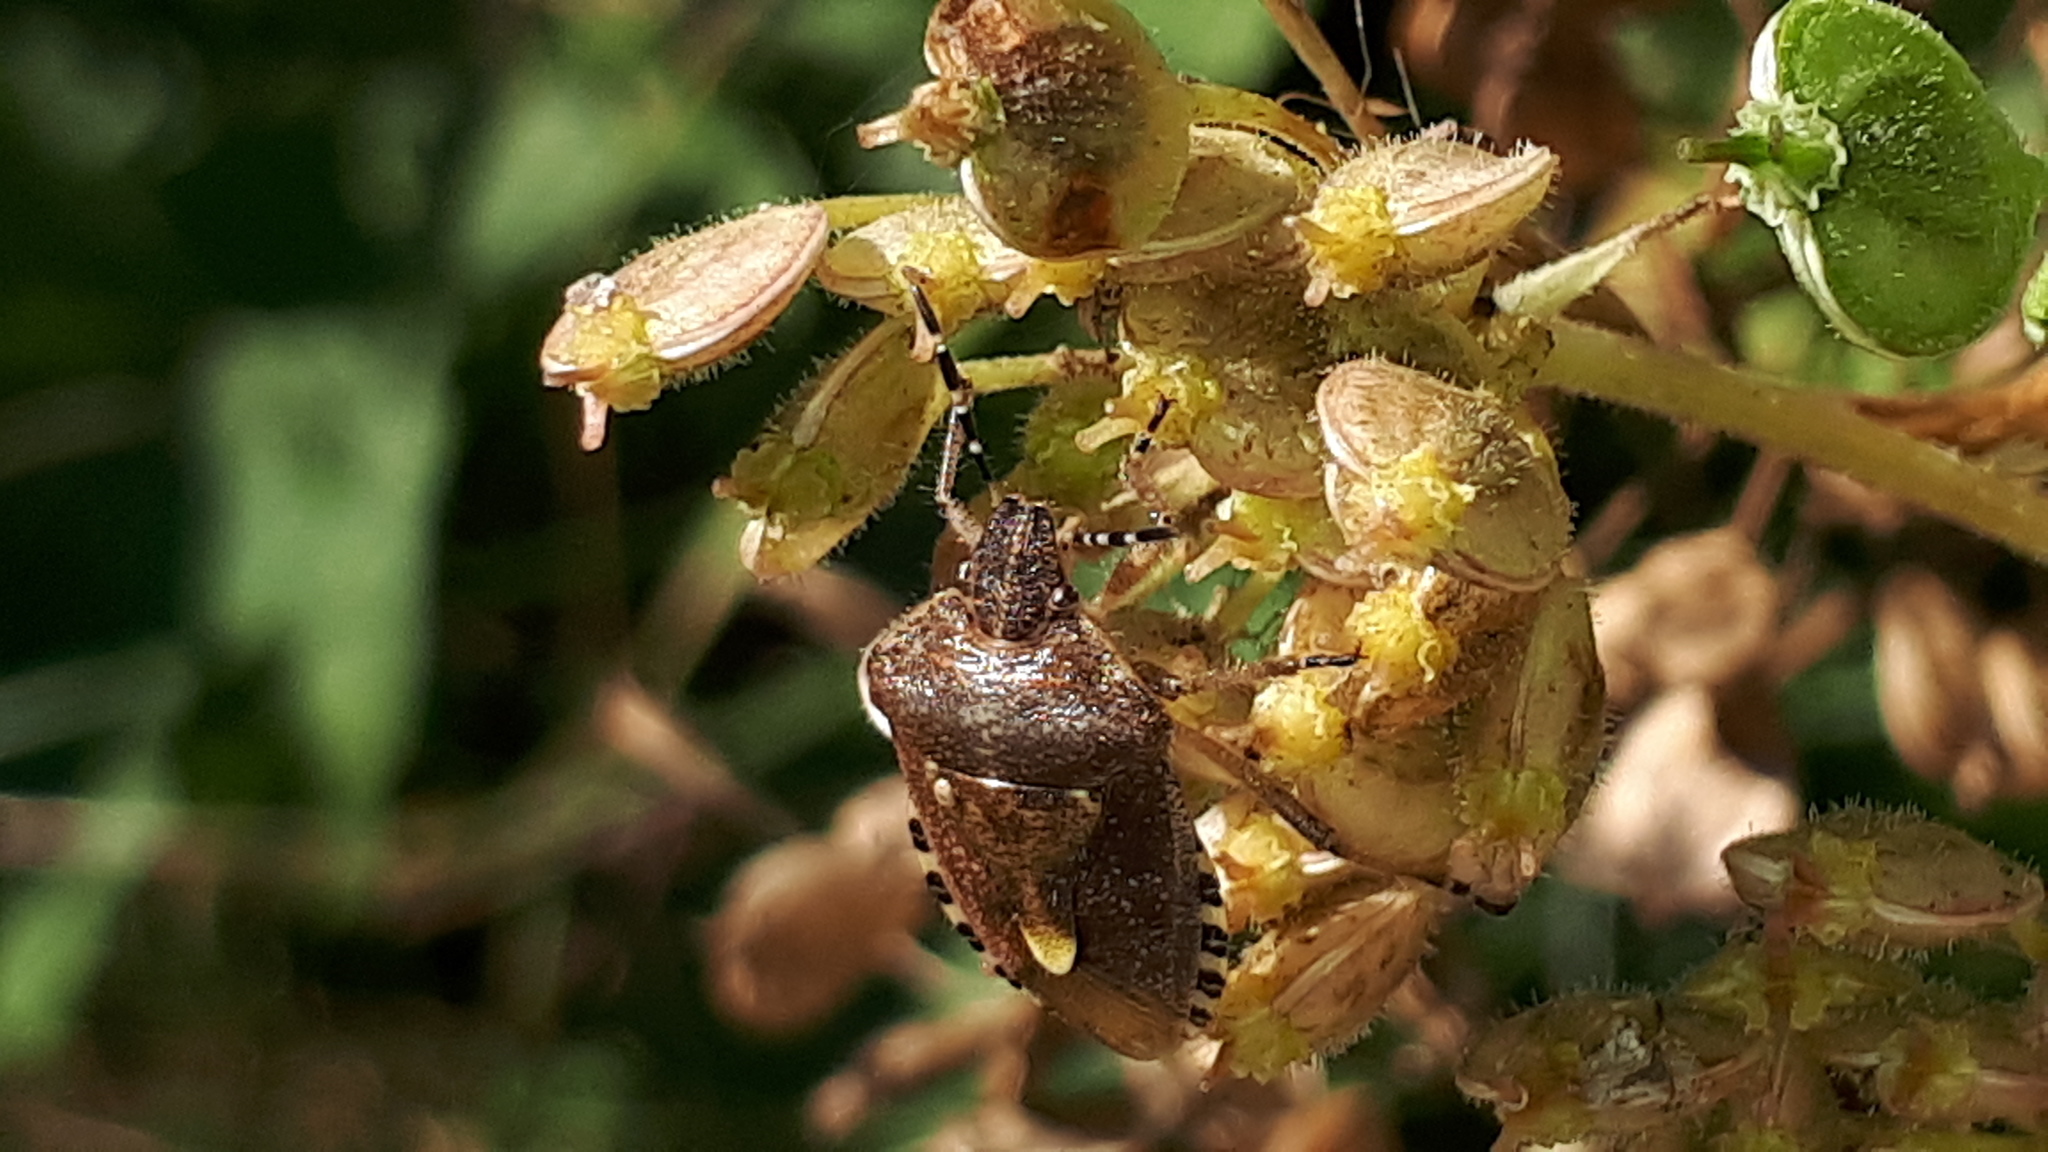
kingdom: Animalia
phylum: Arthropoda
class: Insecta
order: Hemiptera
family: Pentatomidae
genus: Dolycoris
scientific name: Dolycoris baccarum
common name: Sloe bug
